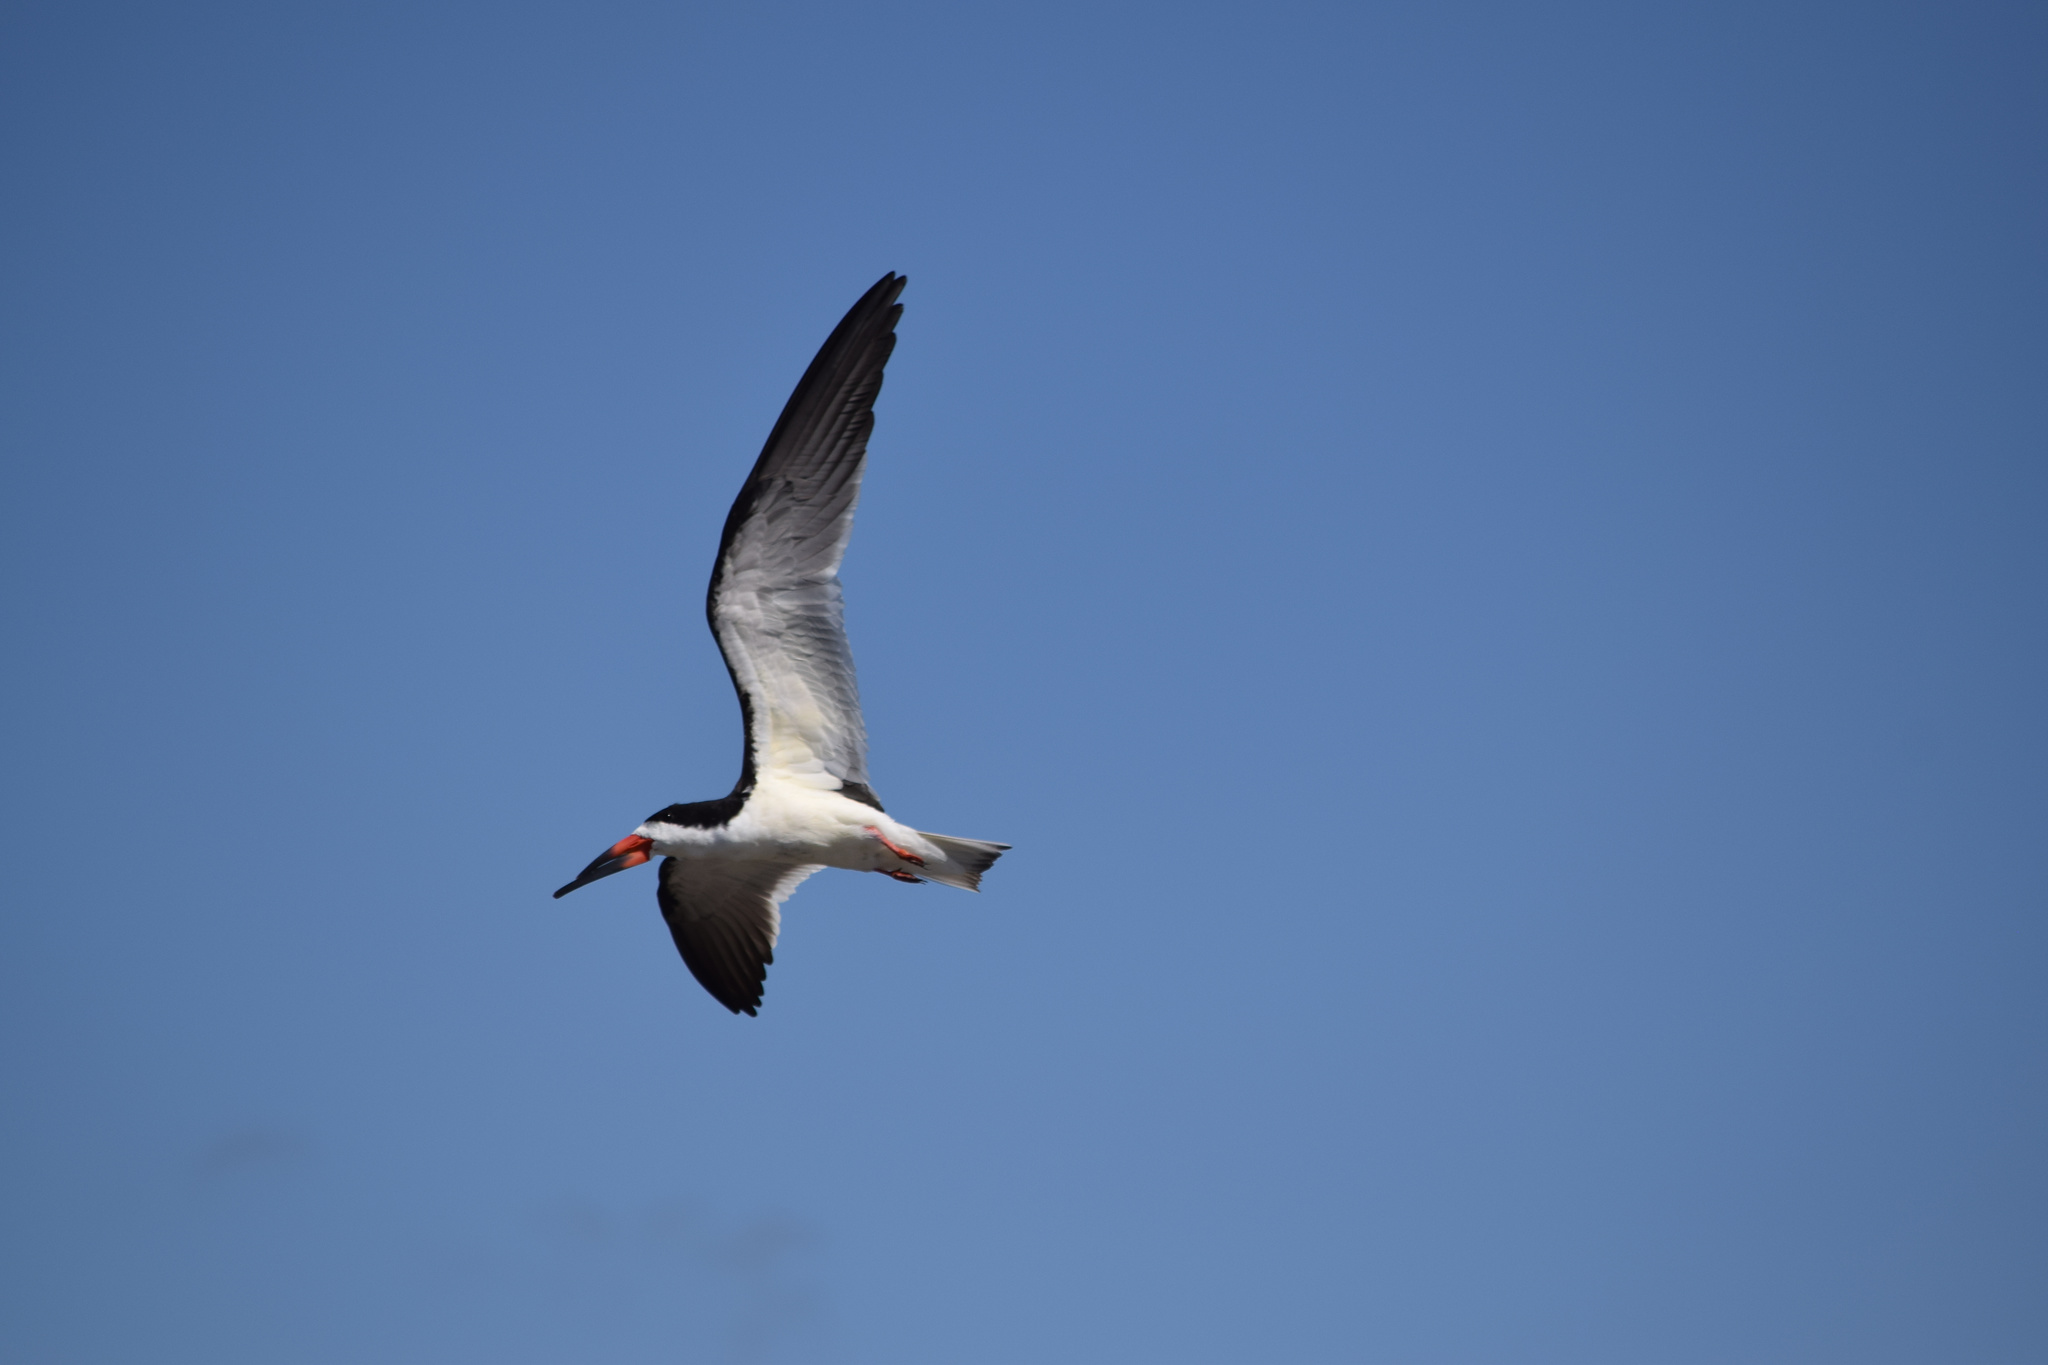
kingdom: Animalia
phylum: Chordata
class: Aves
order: Charadriiformes
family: Laridae
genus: Rynchops
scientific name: Rynchops niger
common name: Black skimmer
